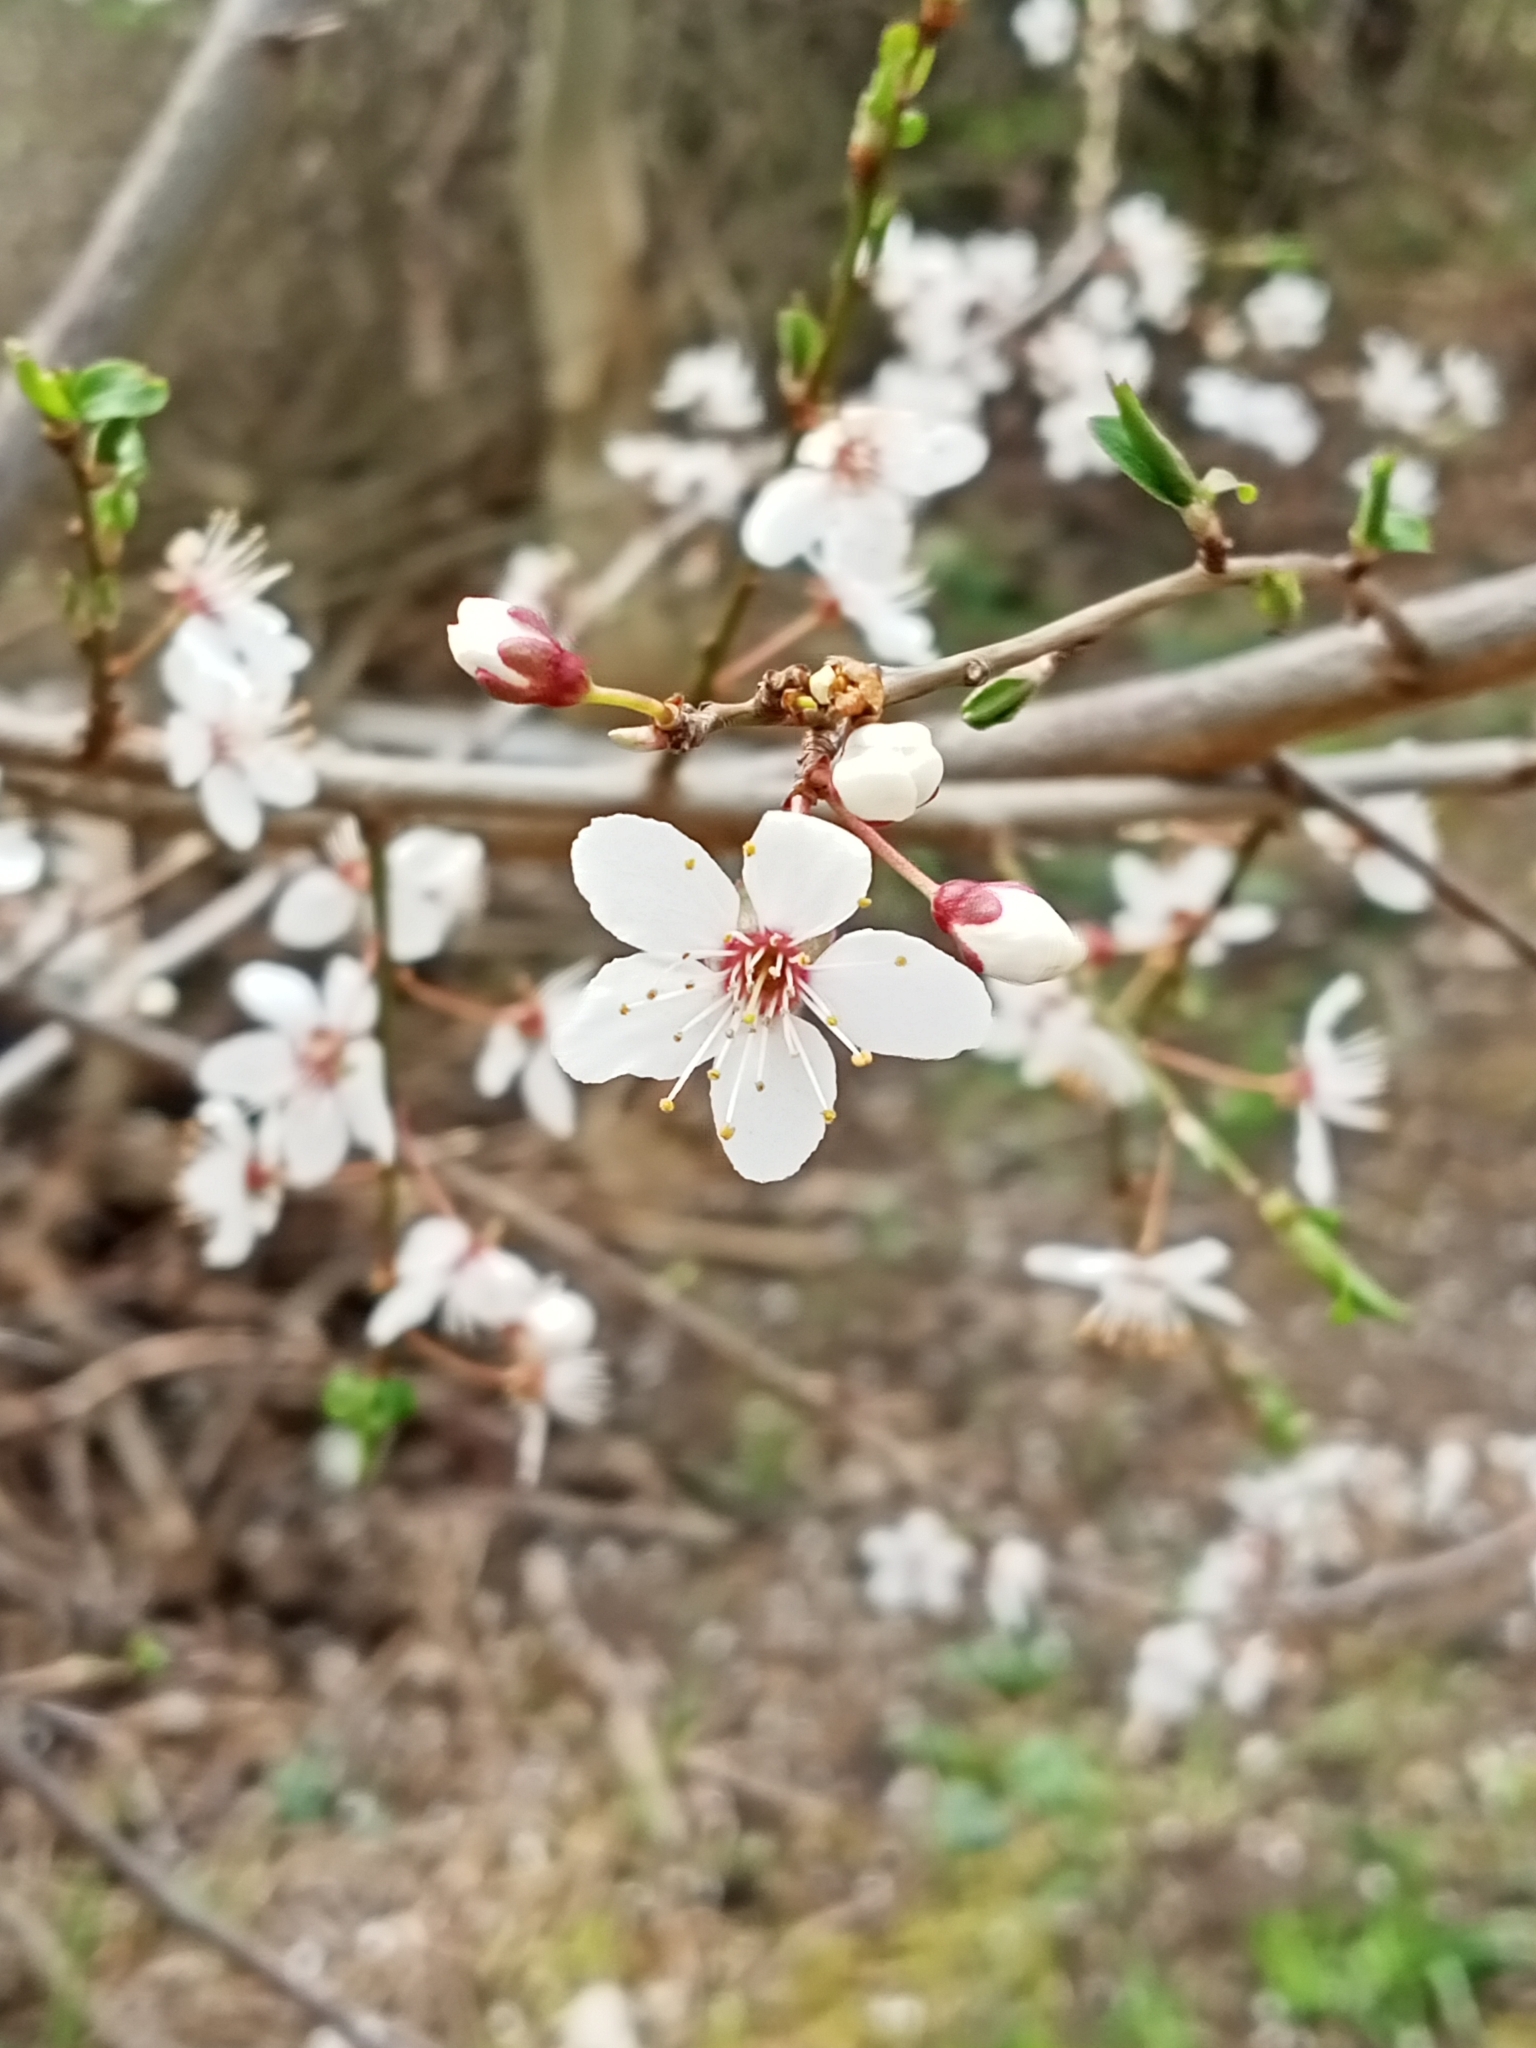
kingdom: Plantae
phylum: Tracheophyta
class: Magnoliopsida
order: Rosales
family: Rosaceae
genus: Prunus
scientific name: Prunus cerasifera
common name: Cherry plum
